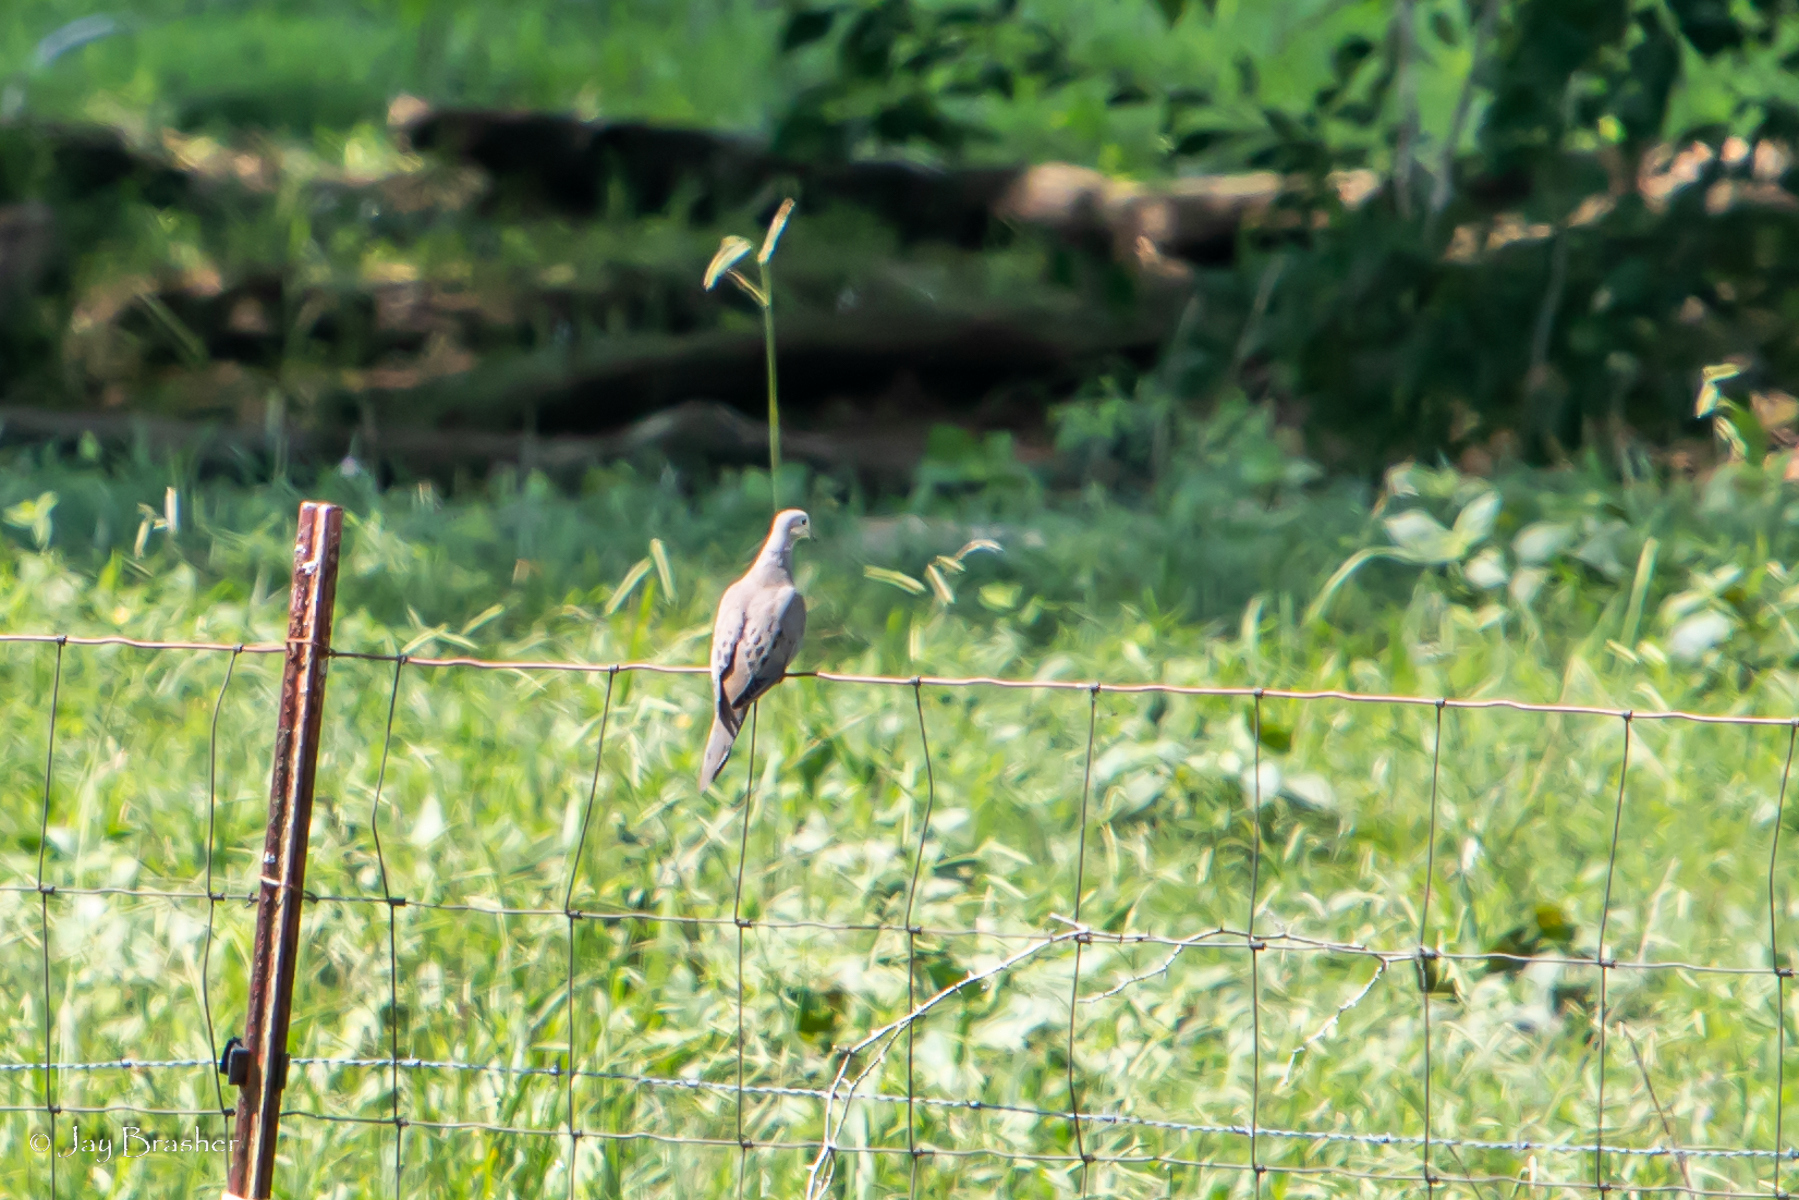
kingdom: Animalia
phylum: Chordata
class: Aves
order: Columbiformes
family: Columbidae
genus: Zenaida
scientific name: Zenaida macroura
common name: Mourning dove
